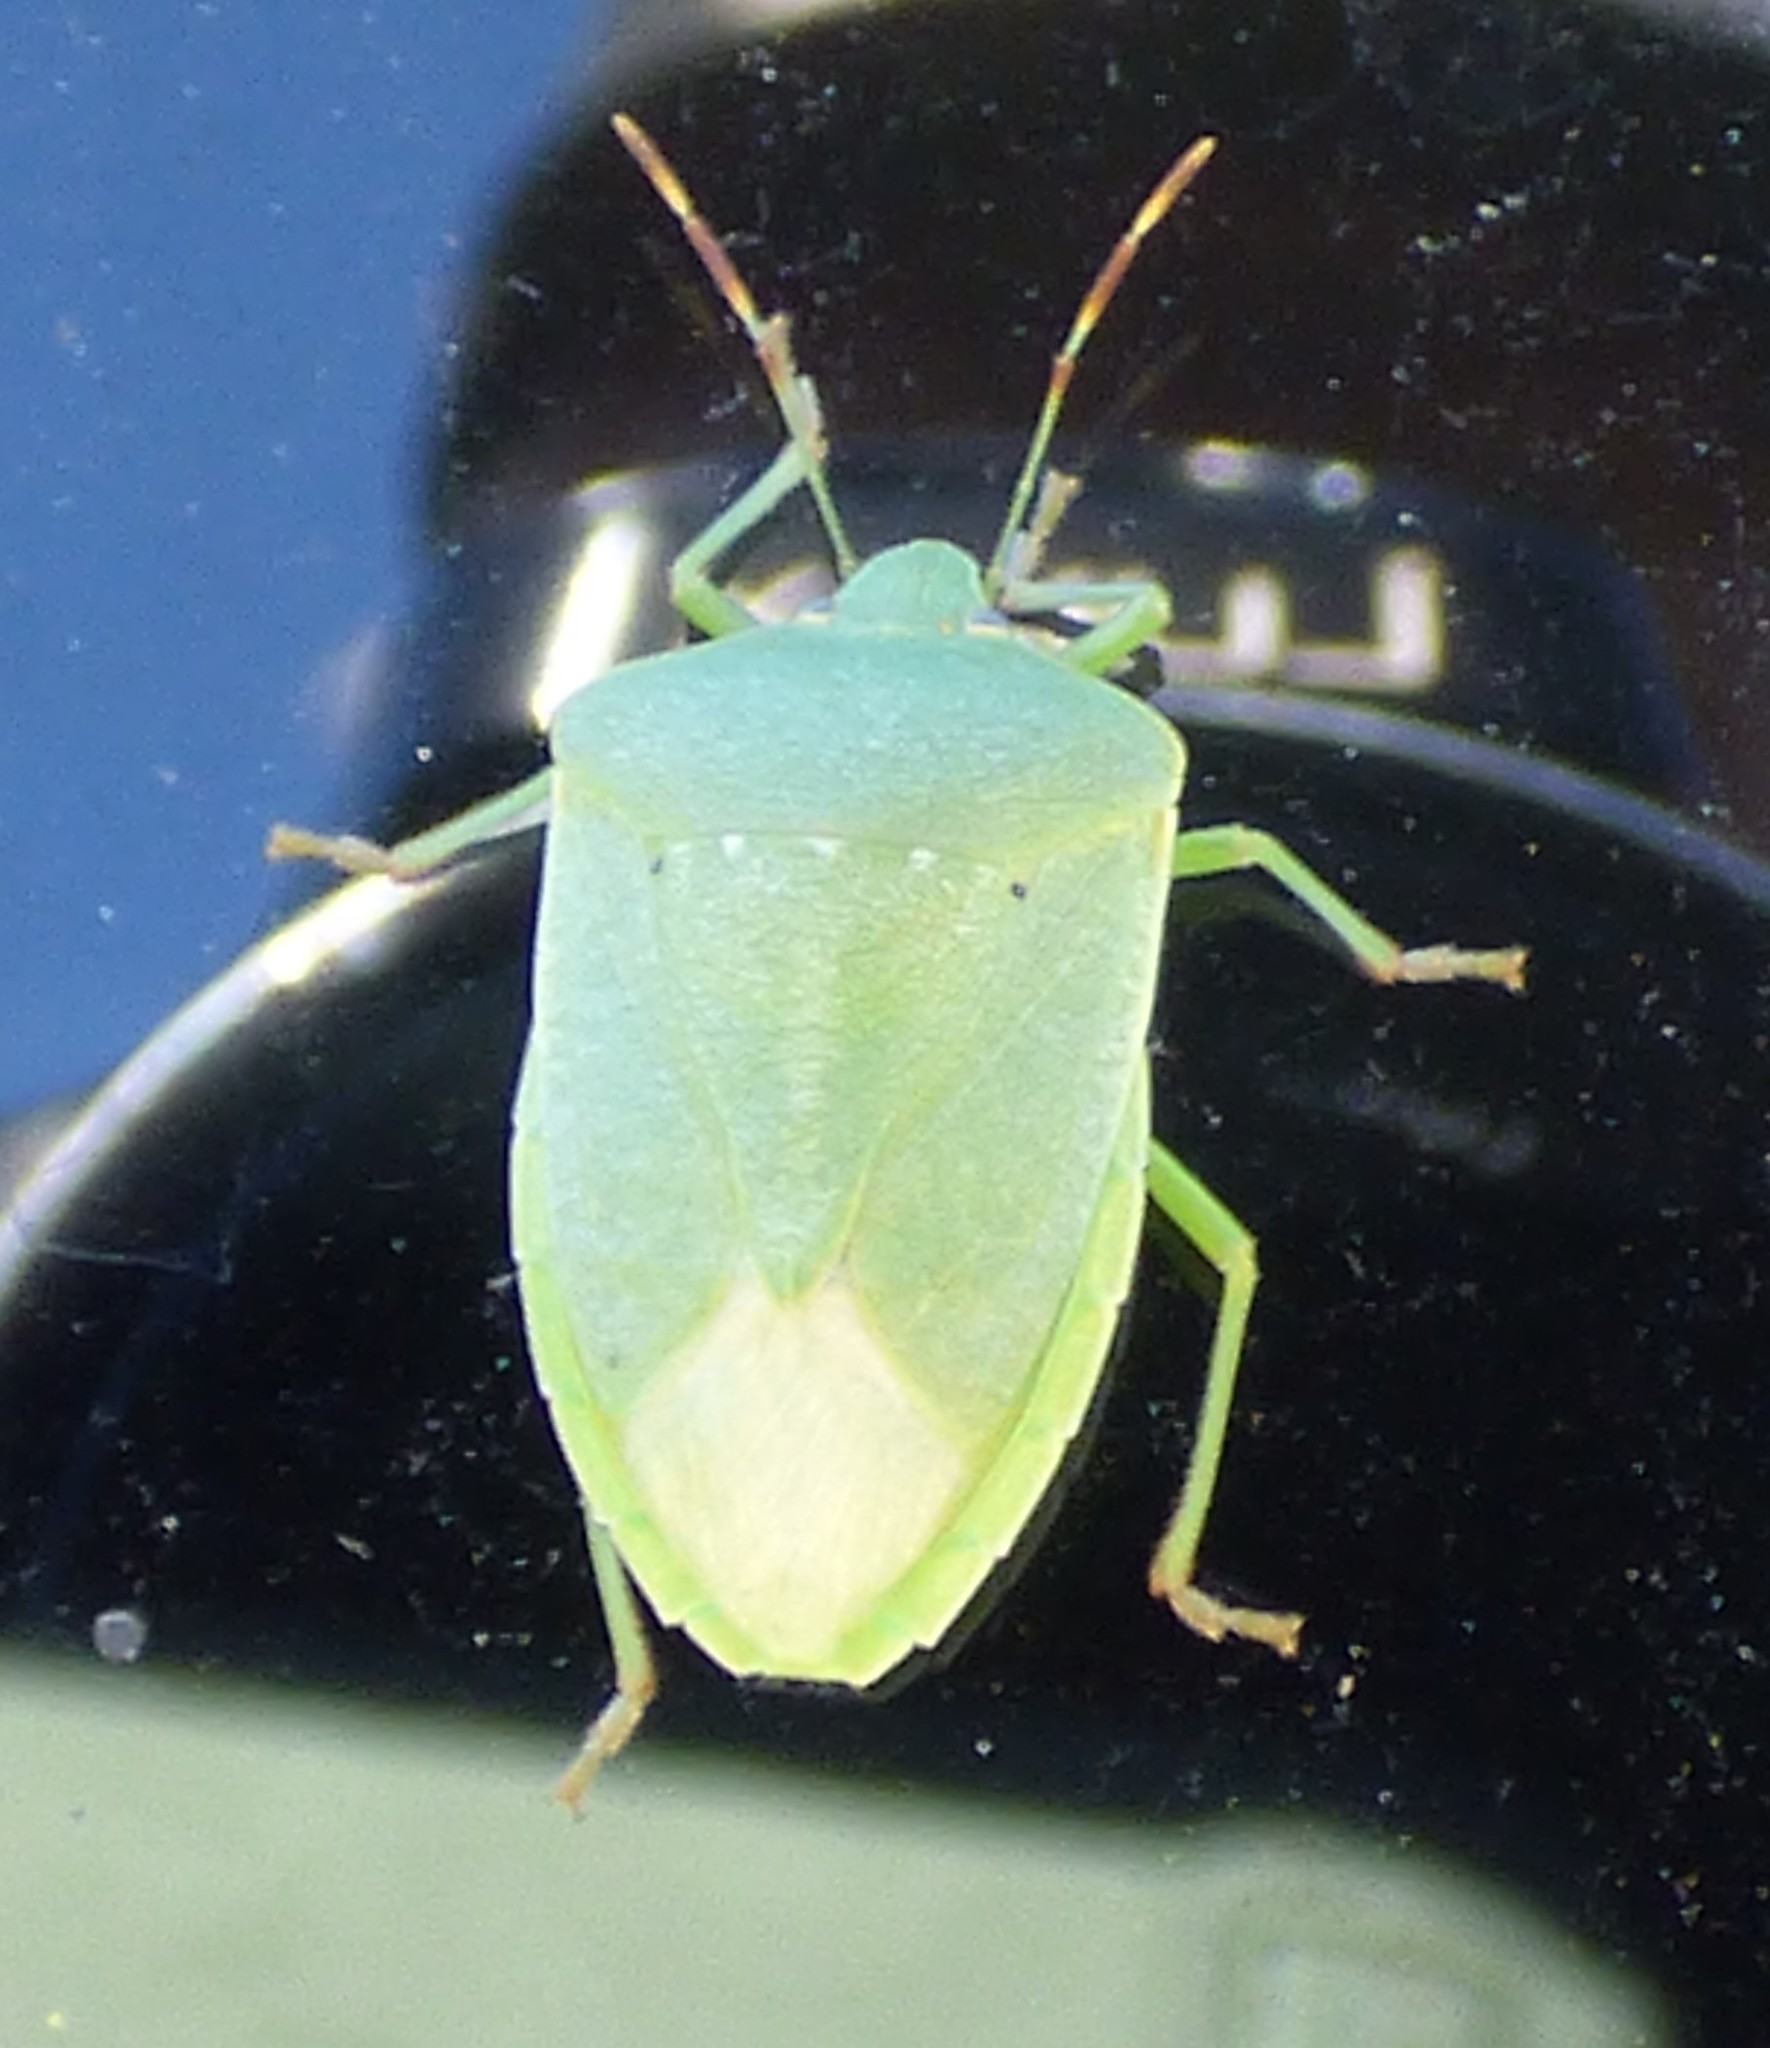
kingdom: Animalia
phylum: Arthropoda
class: Insecta
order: Hemiptera
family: Pentatomidae
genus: Nezara
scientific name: Nezara viridula
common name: Southern green stink bug
